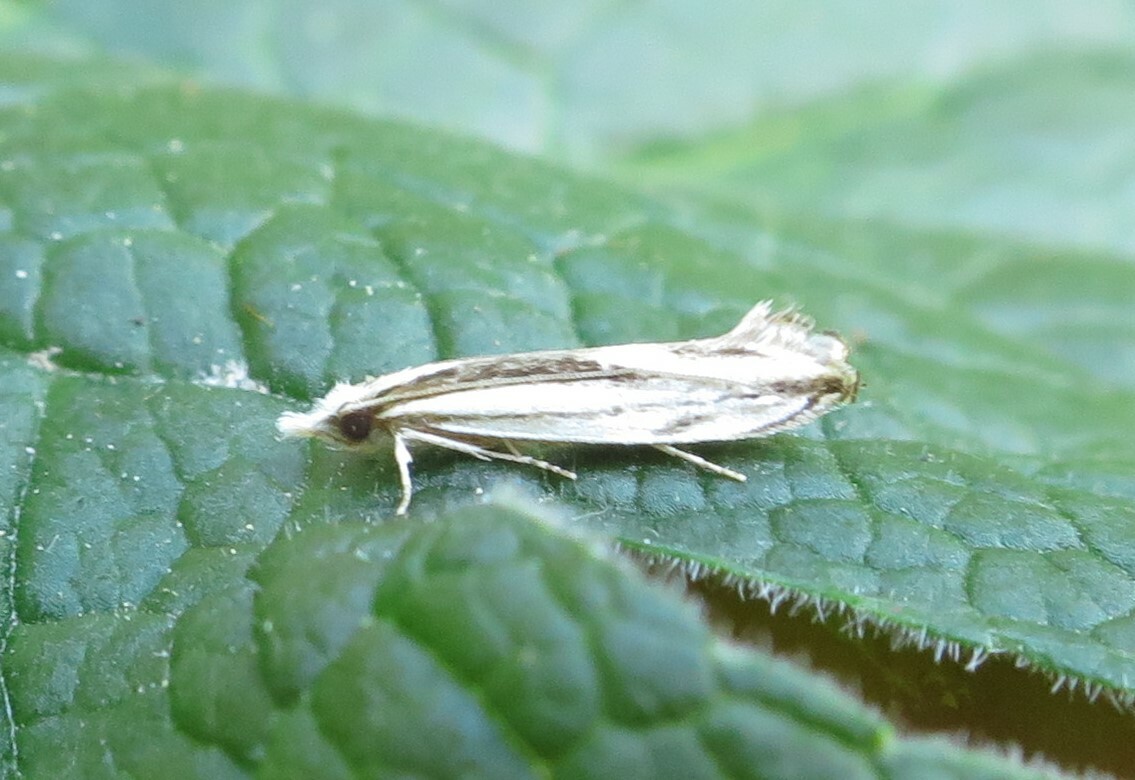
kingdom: Animalia
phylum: Arthropoda
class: Insecta
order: Lepidoptera
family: Tineidae
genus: Erechthias
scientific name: Erechthias stilbella
